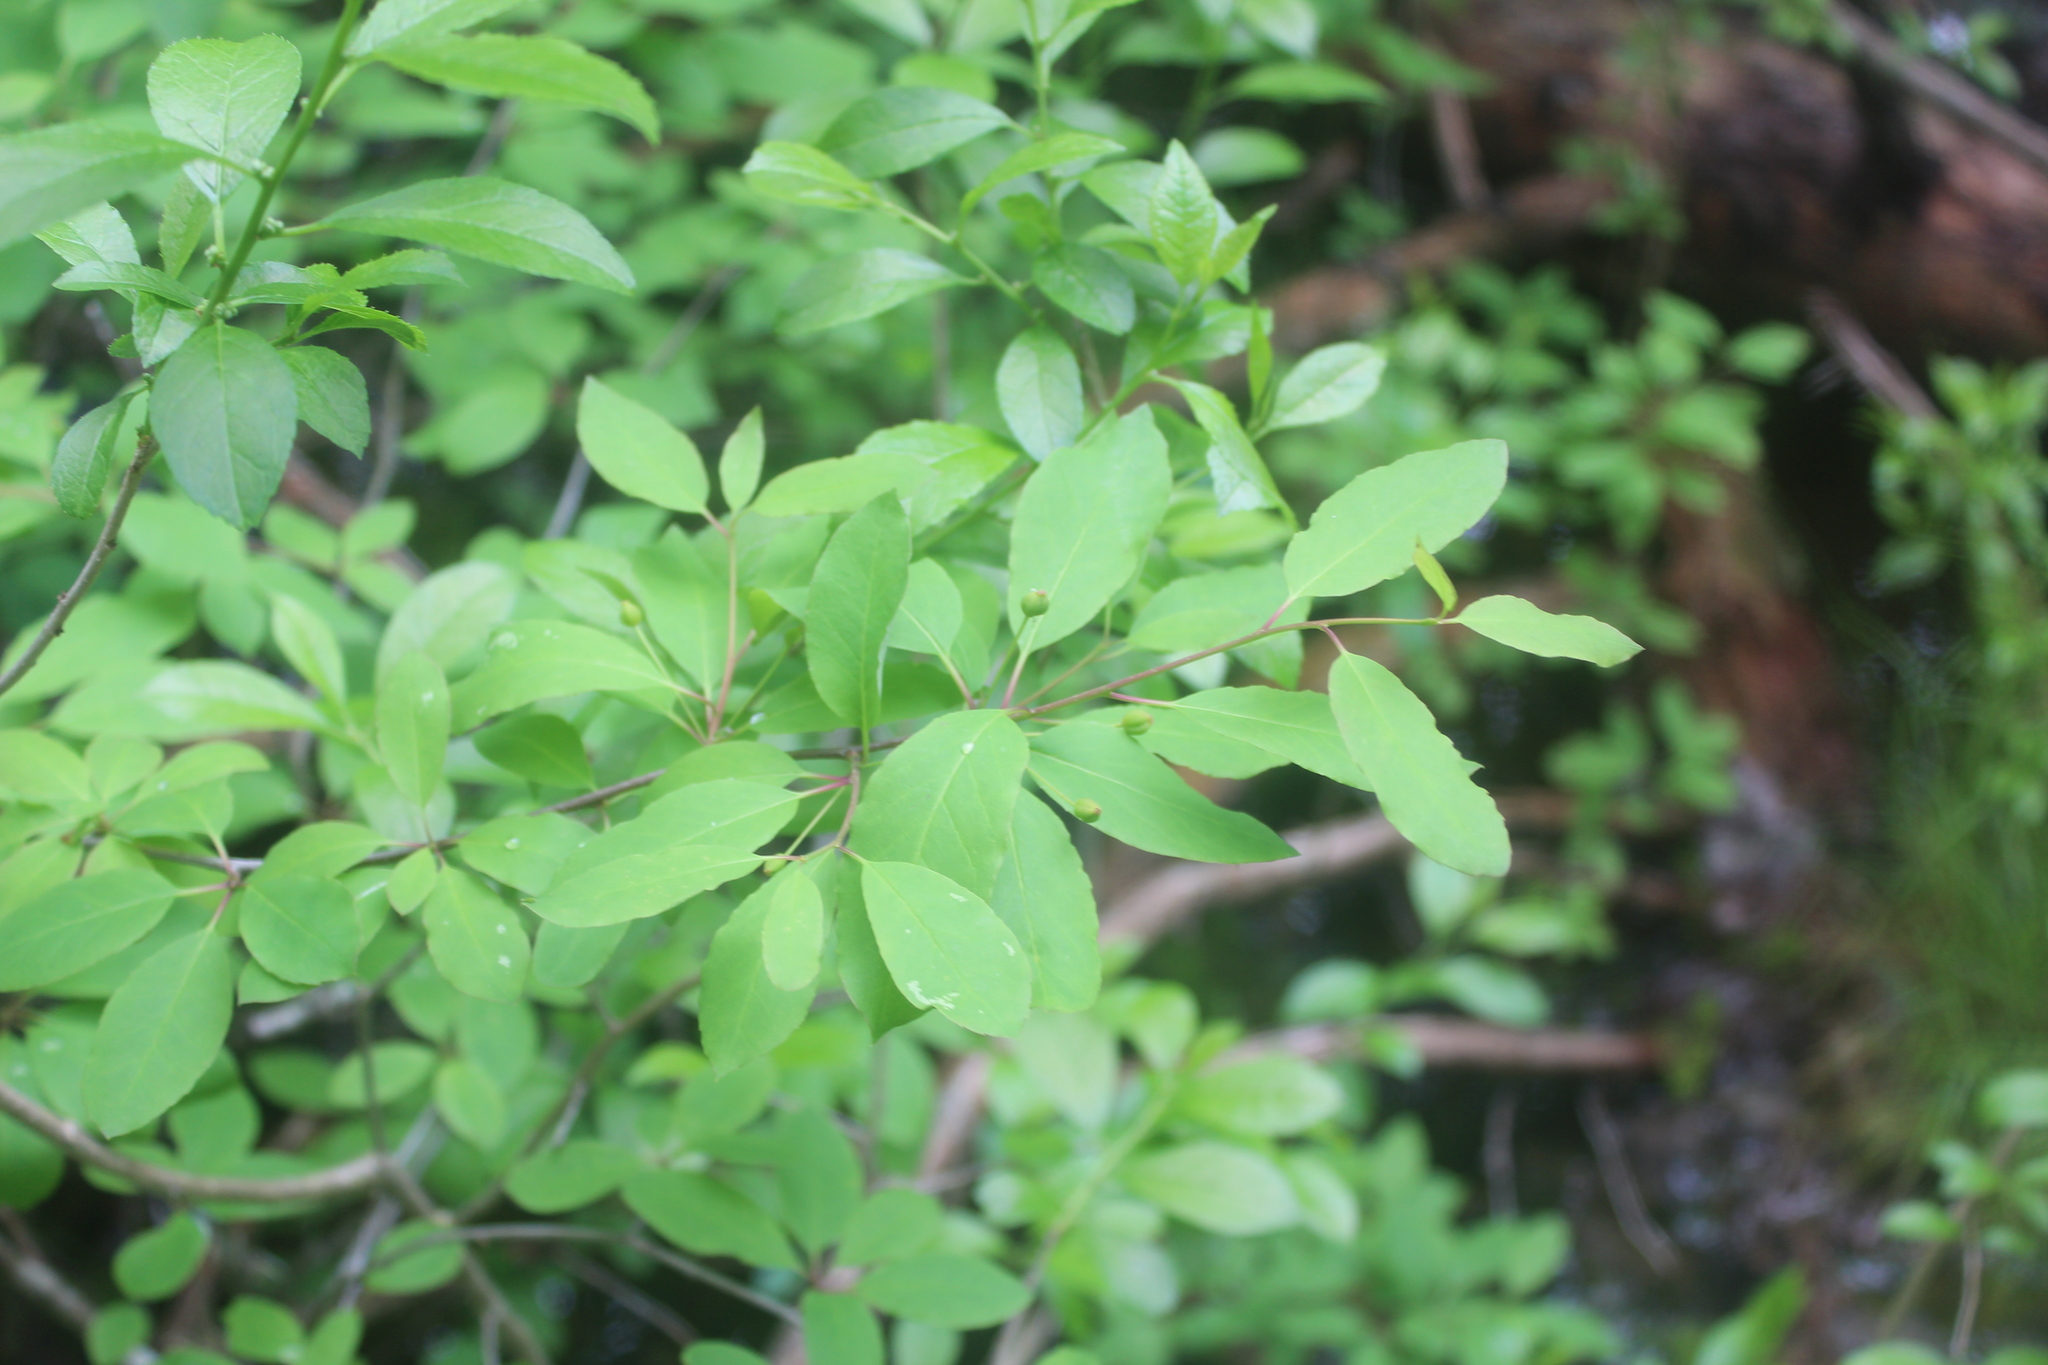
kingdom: Plantae
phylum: Tracheophyta
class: Magnoliopsida
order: Aquifoliales
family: Aquifoliaceae
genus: Ilex
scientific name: Ilex mucronata
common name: Catberry
